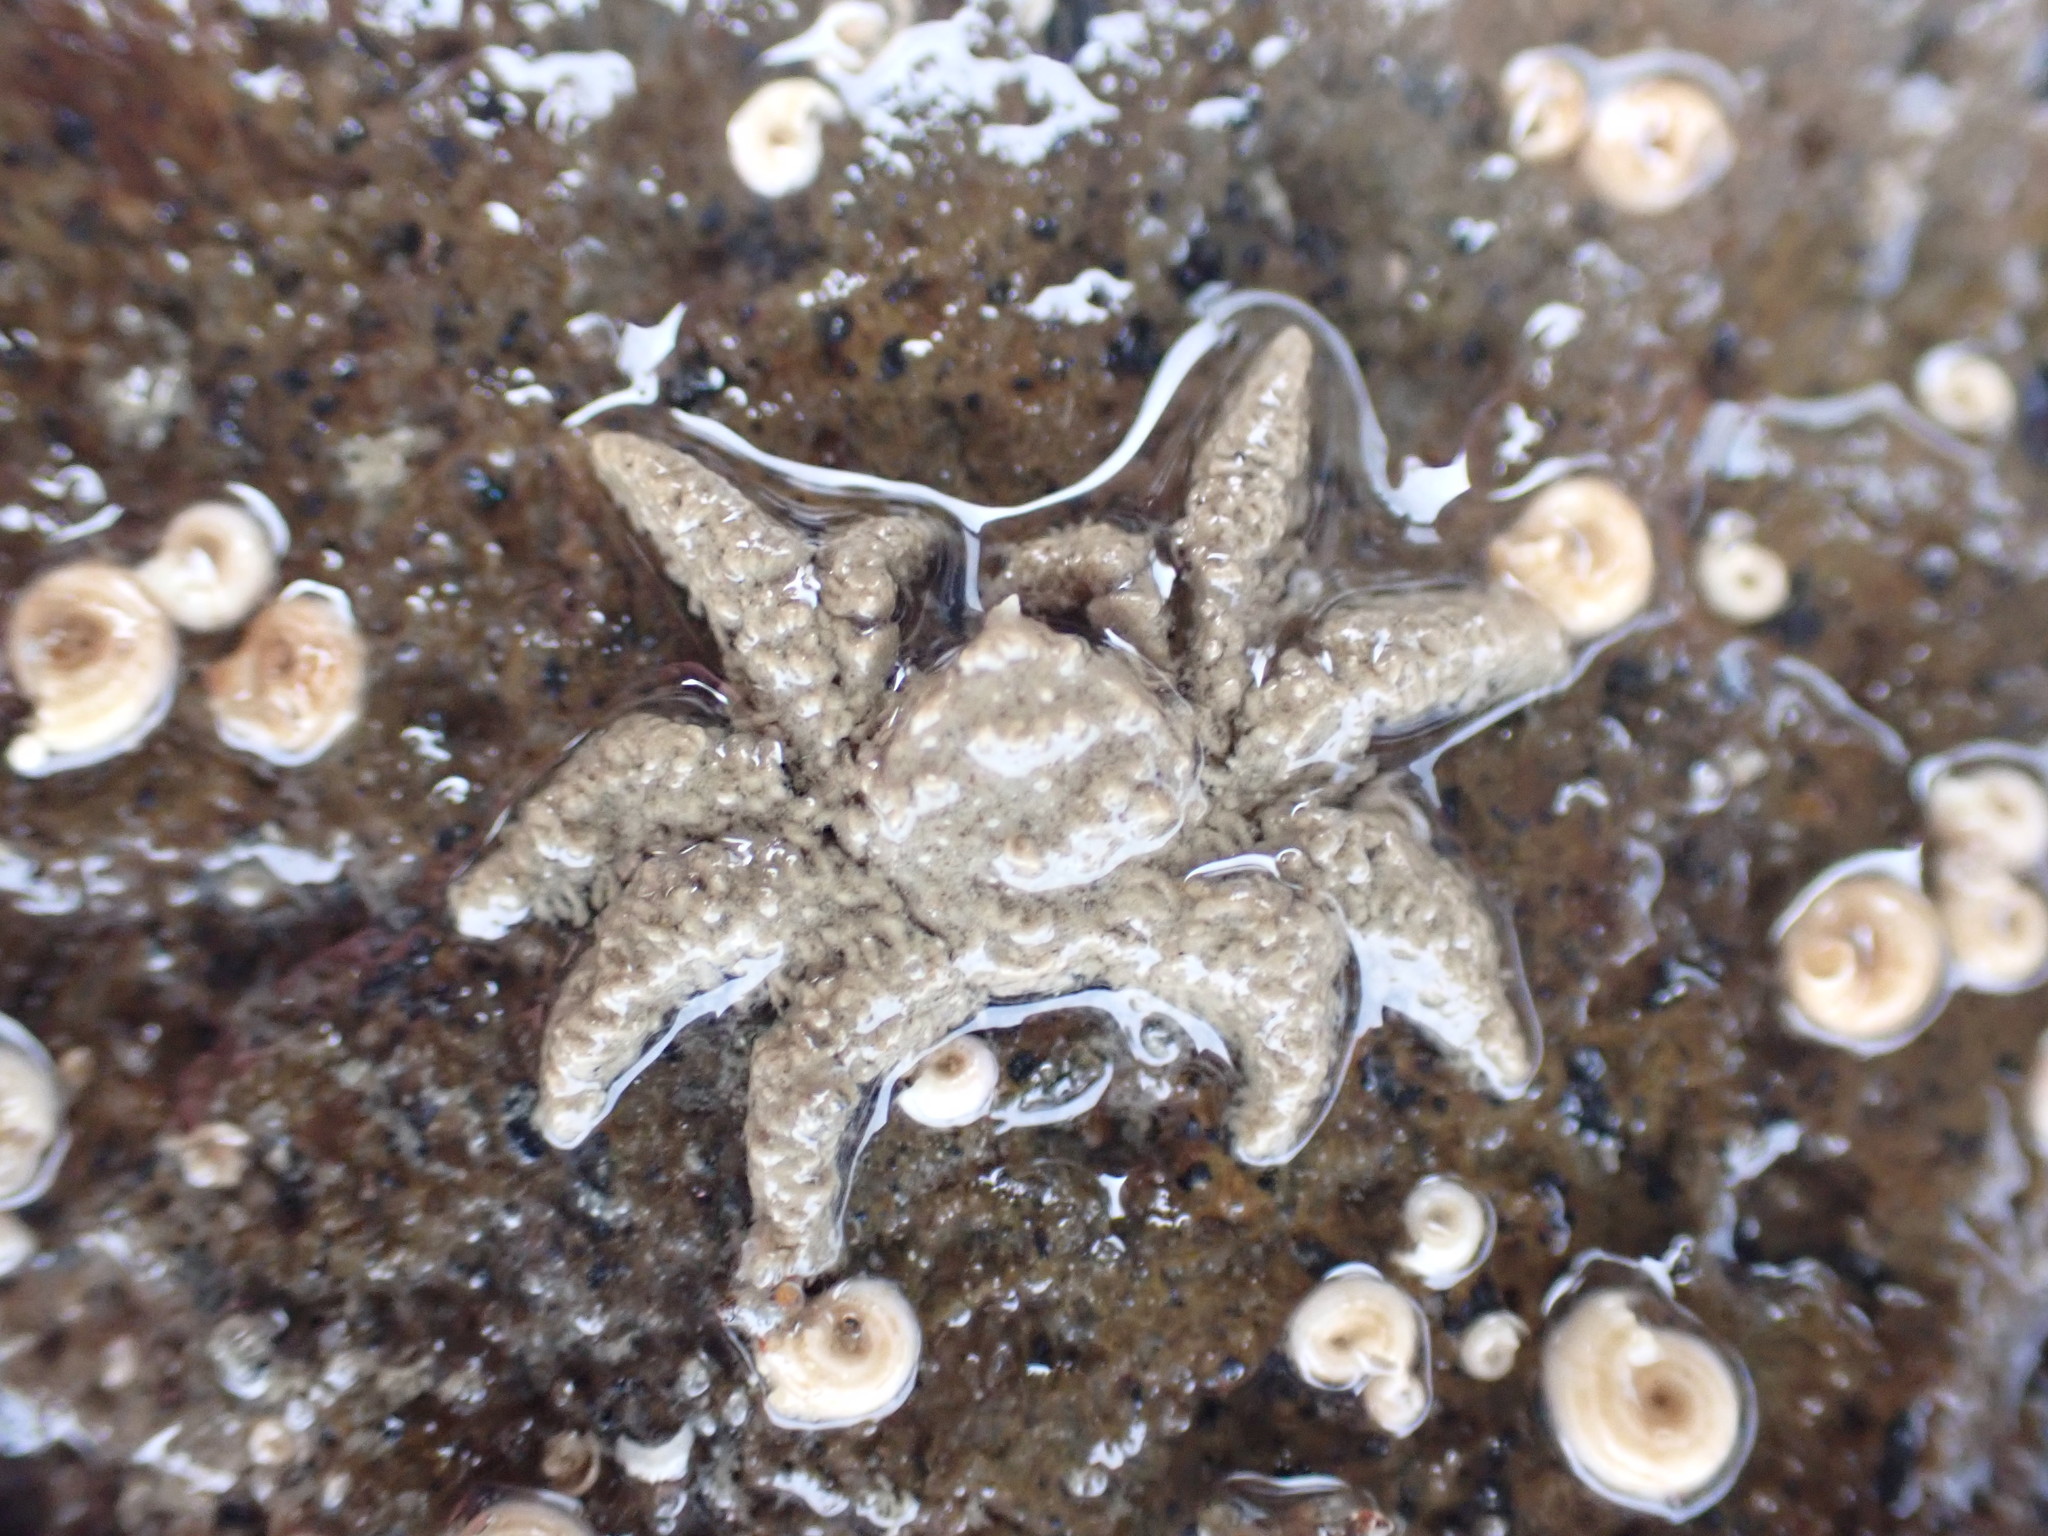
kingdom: Animalia
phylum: Arthropoda
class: Malacostraca
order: Decapoda
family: Hymenosomatidae
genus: Neohymenicus
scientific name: Neohymenicus pubescens
